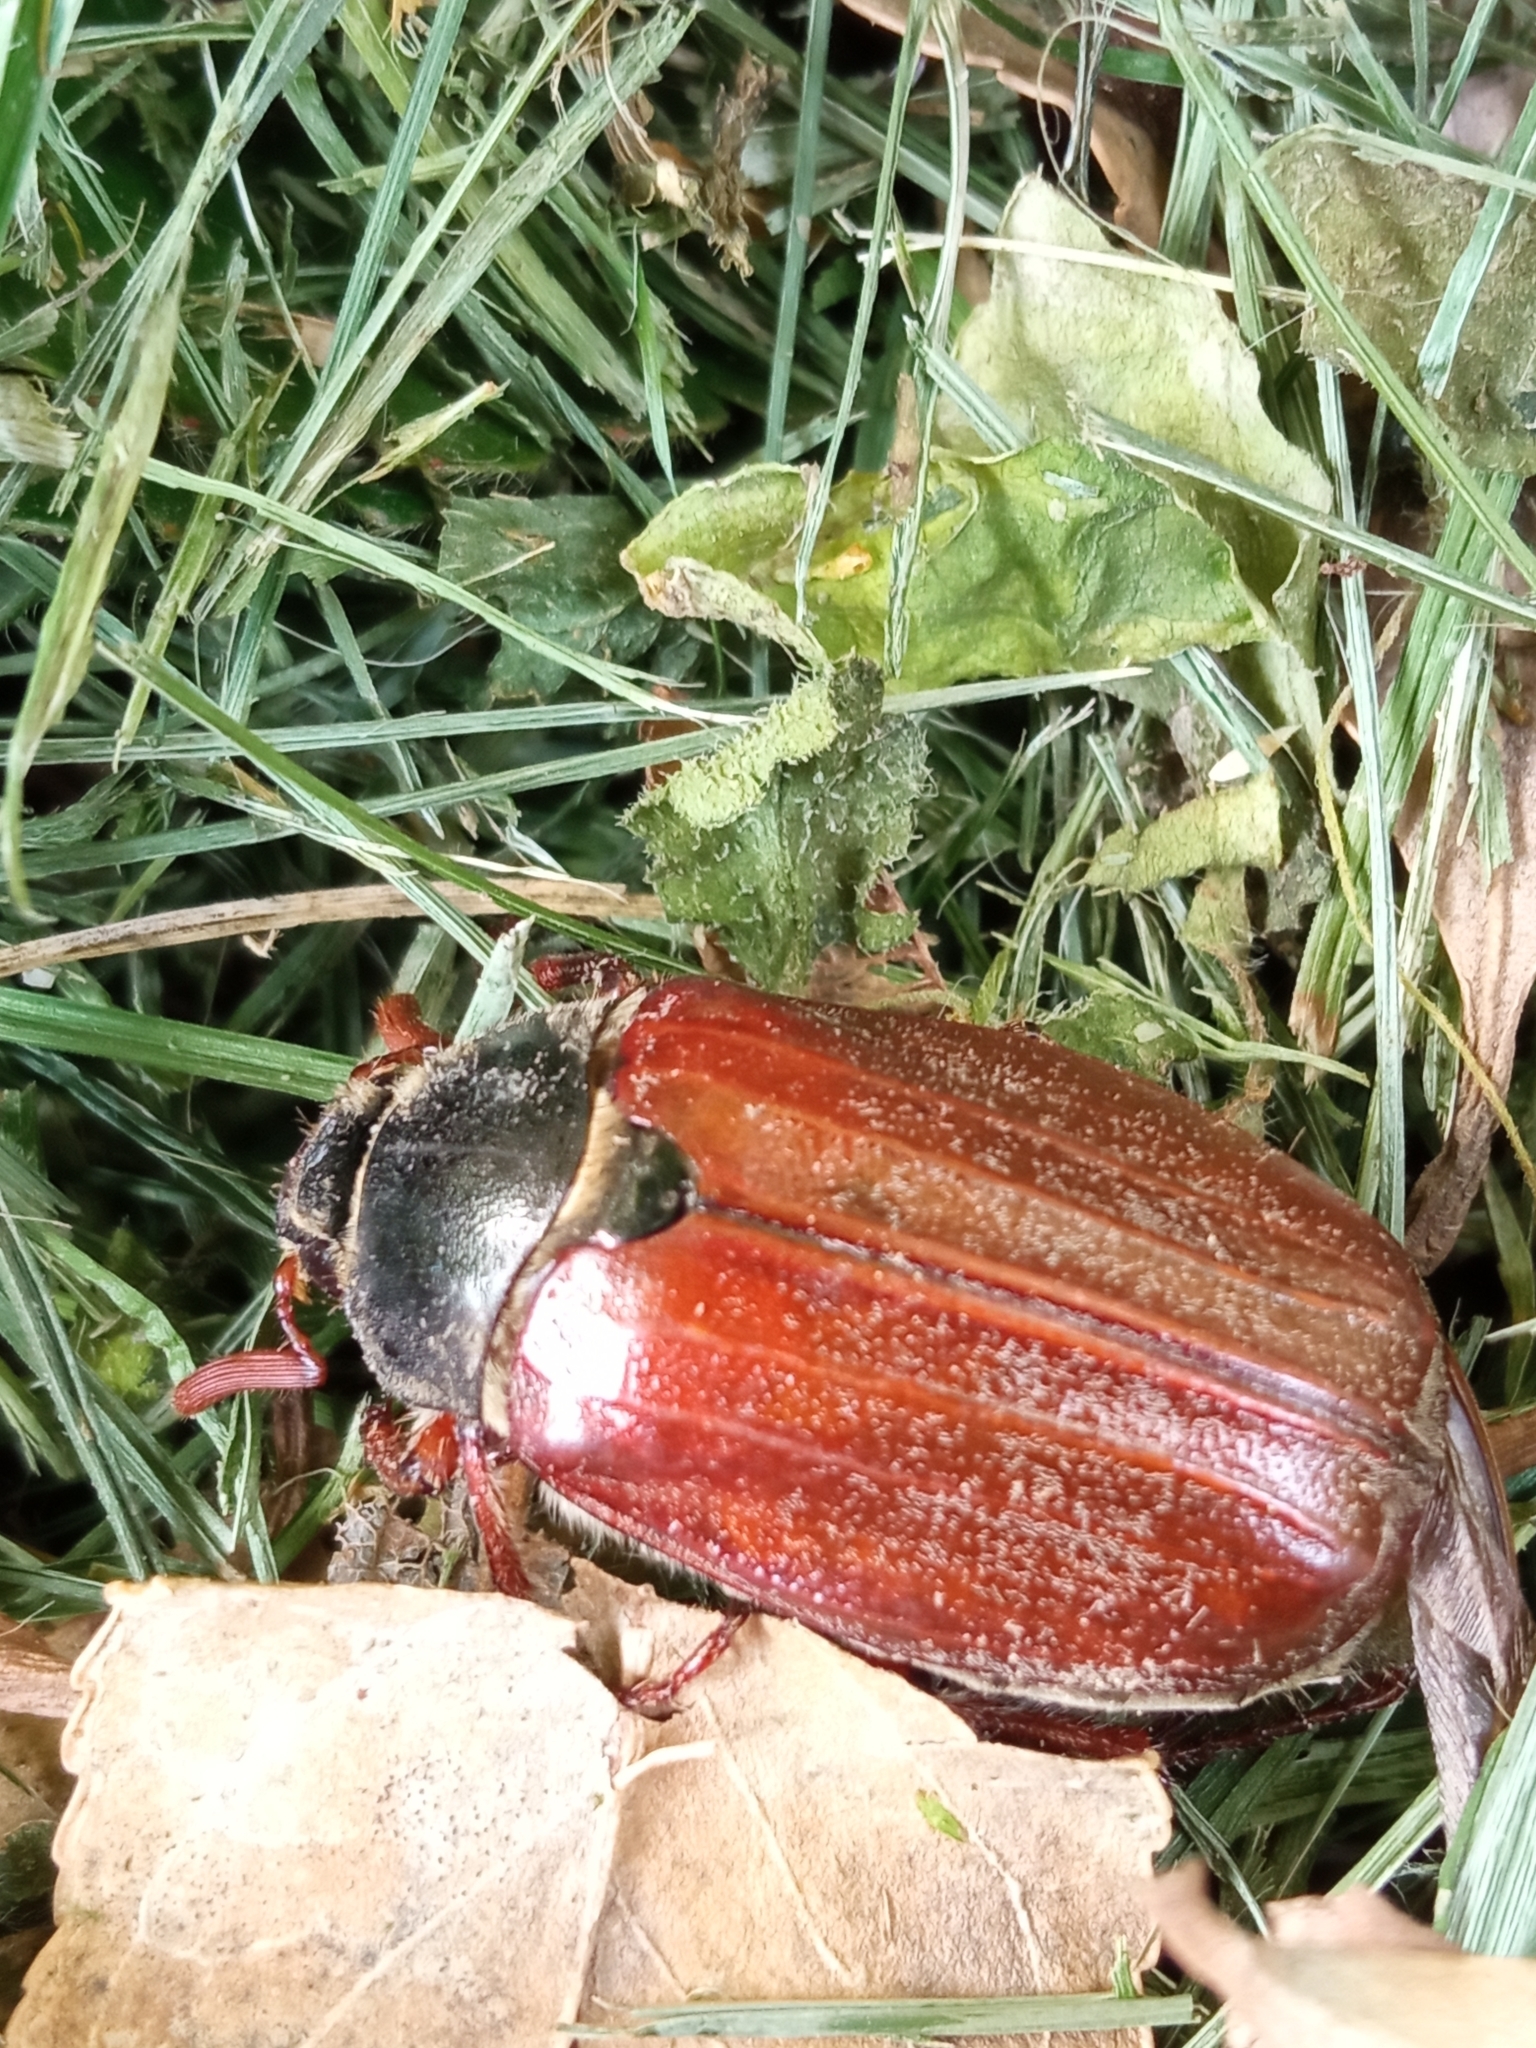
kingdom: Animalia
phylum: Arthropoda
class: Insecta
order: Coleoptera
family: Scarabaeidae
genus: Melolontha
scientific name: Melolontha melolontha
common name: Cockchafer maybeetle
